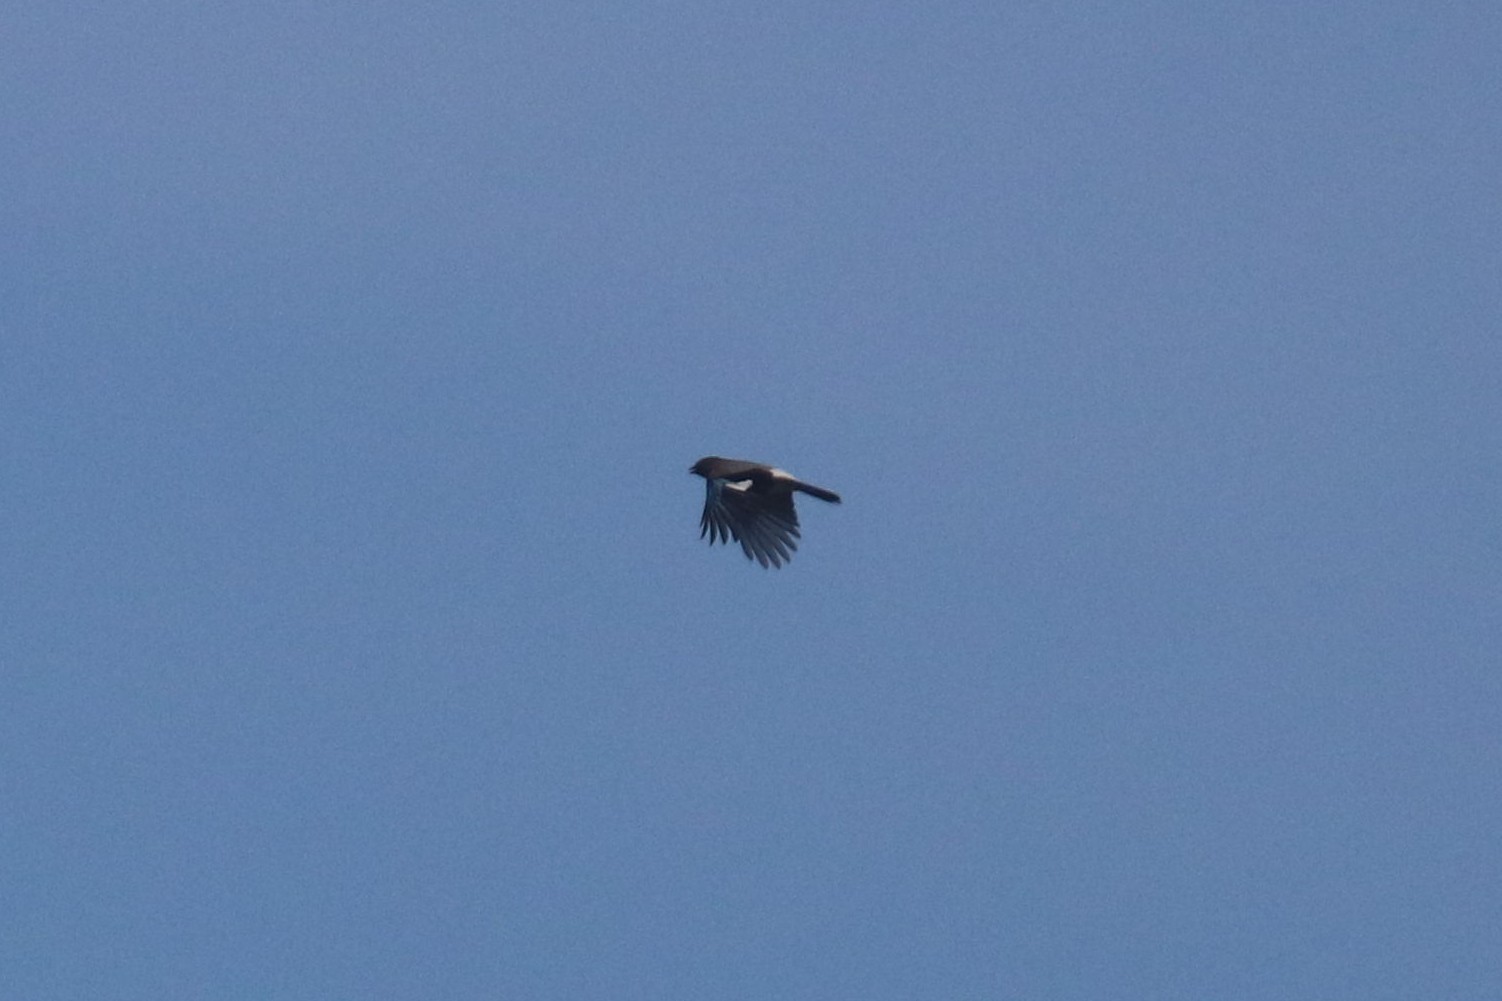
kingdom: Animalia
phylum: Chordata
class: Aves
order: Passeriformes
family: Corvidae
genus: Garrulus
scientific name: Garrulus glandarius
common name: Eurasian jay
